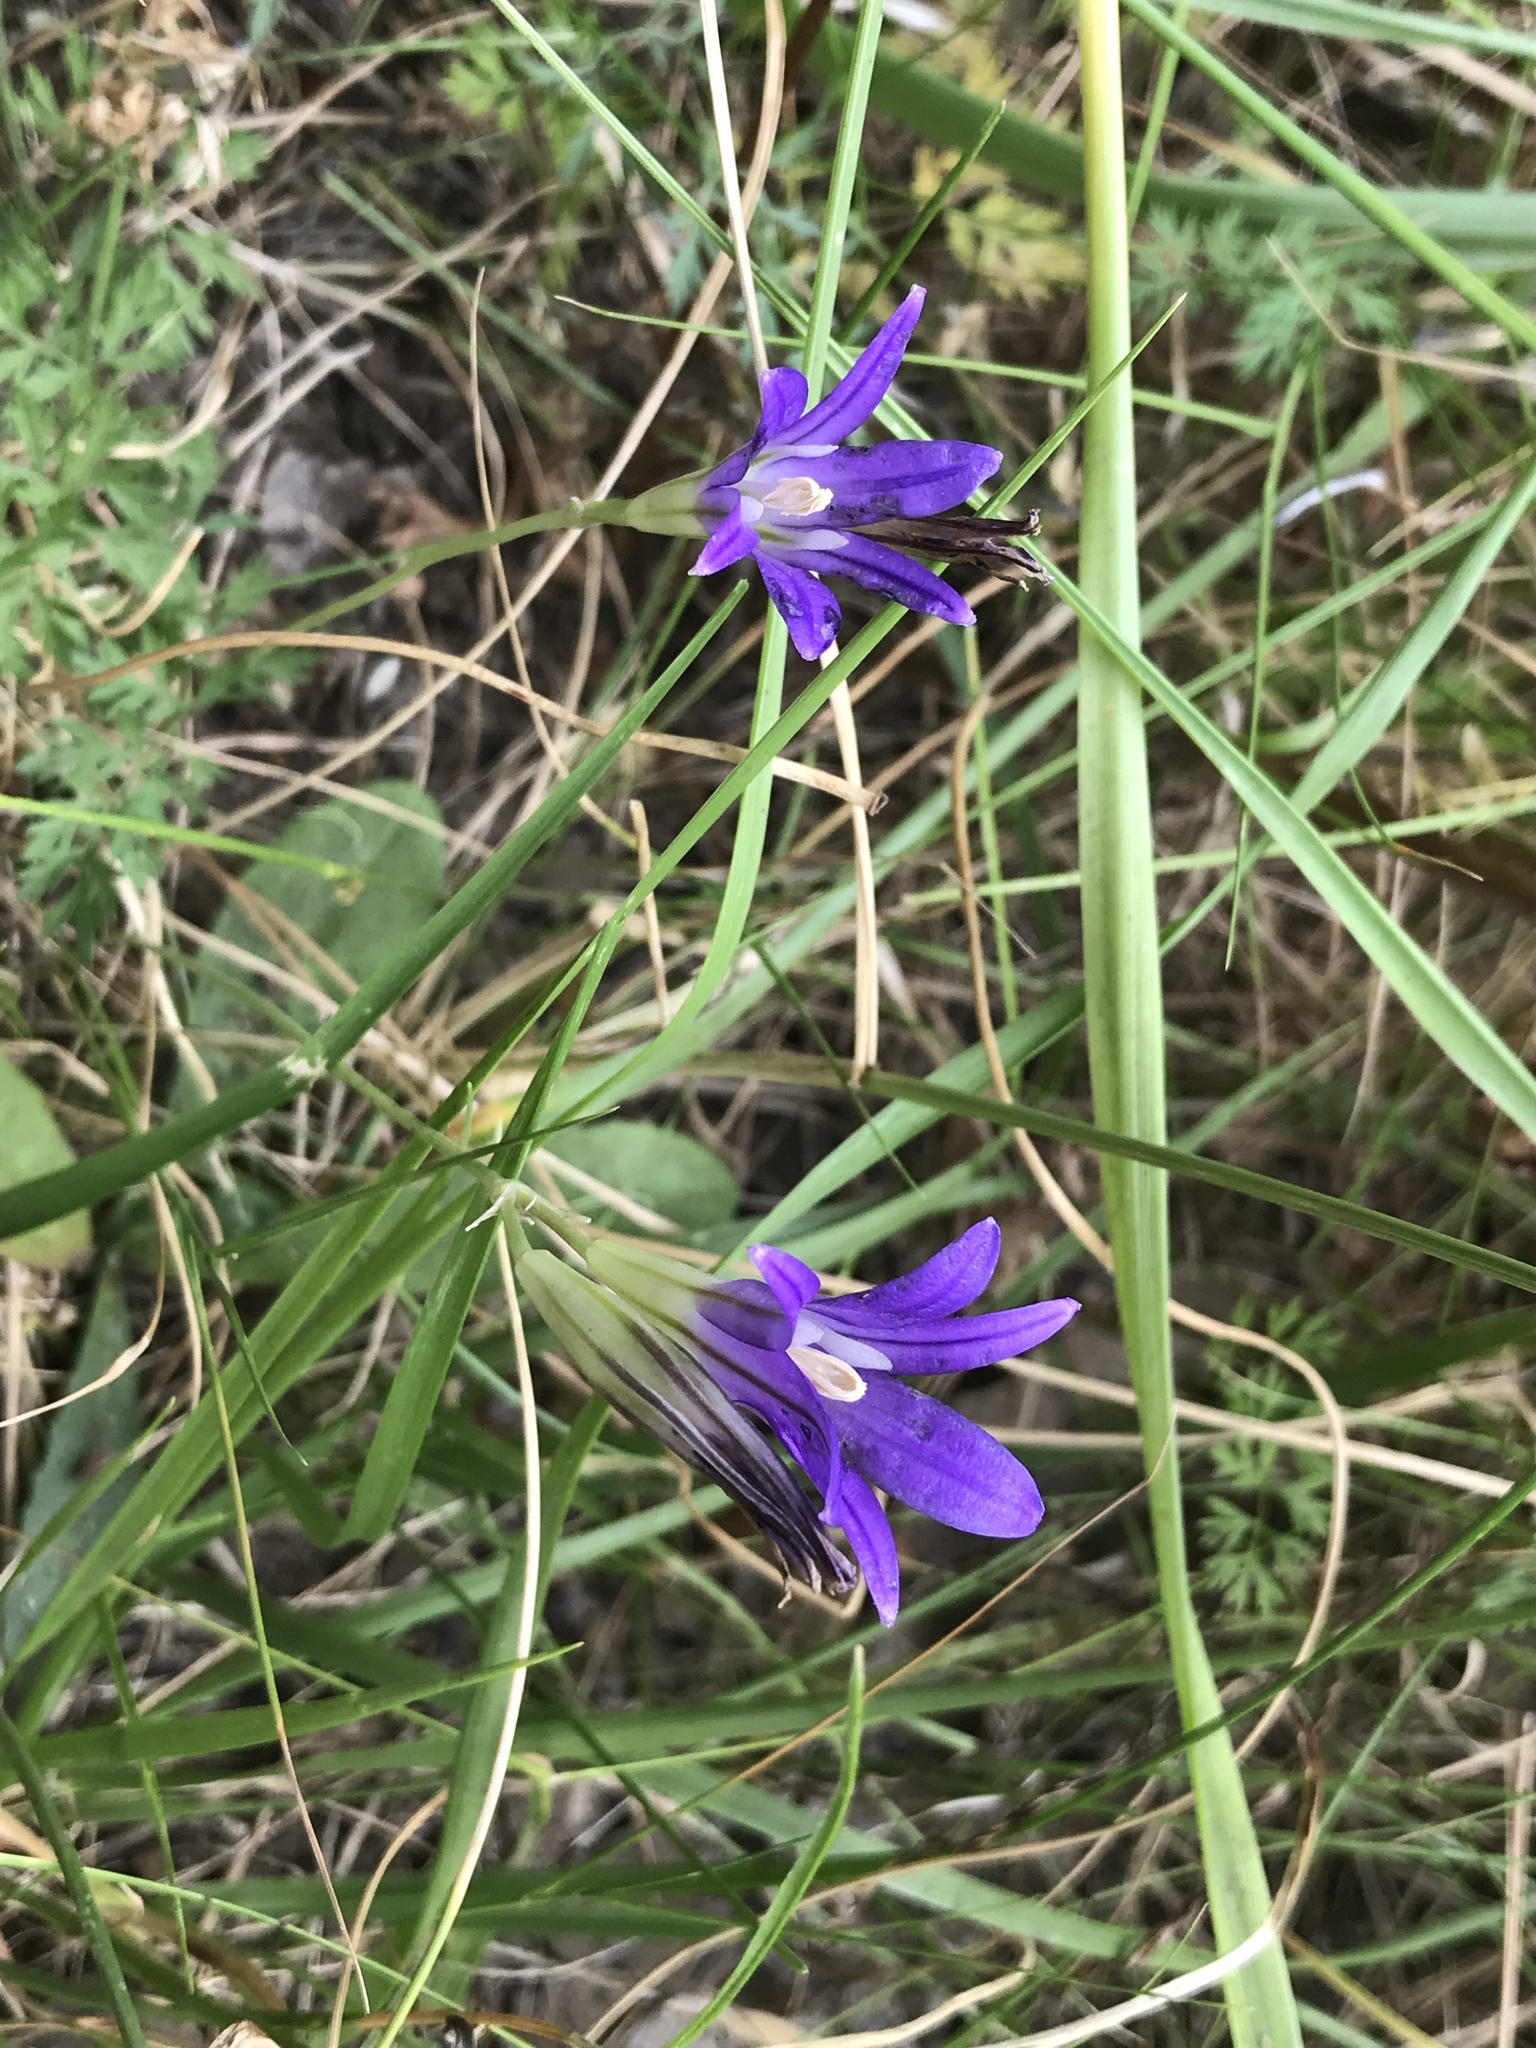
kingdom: Plantae
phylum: Tracheophyta
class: Liliopsida
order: Asparagales
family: Asparagaceae
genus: Brodiaea
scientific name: Brodiaea elegans
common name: Elegant cluster-lily
